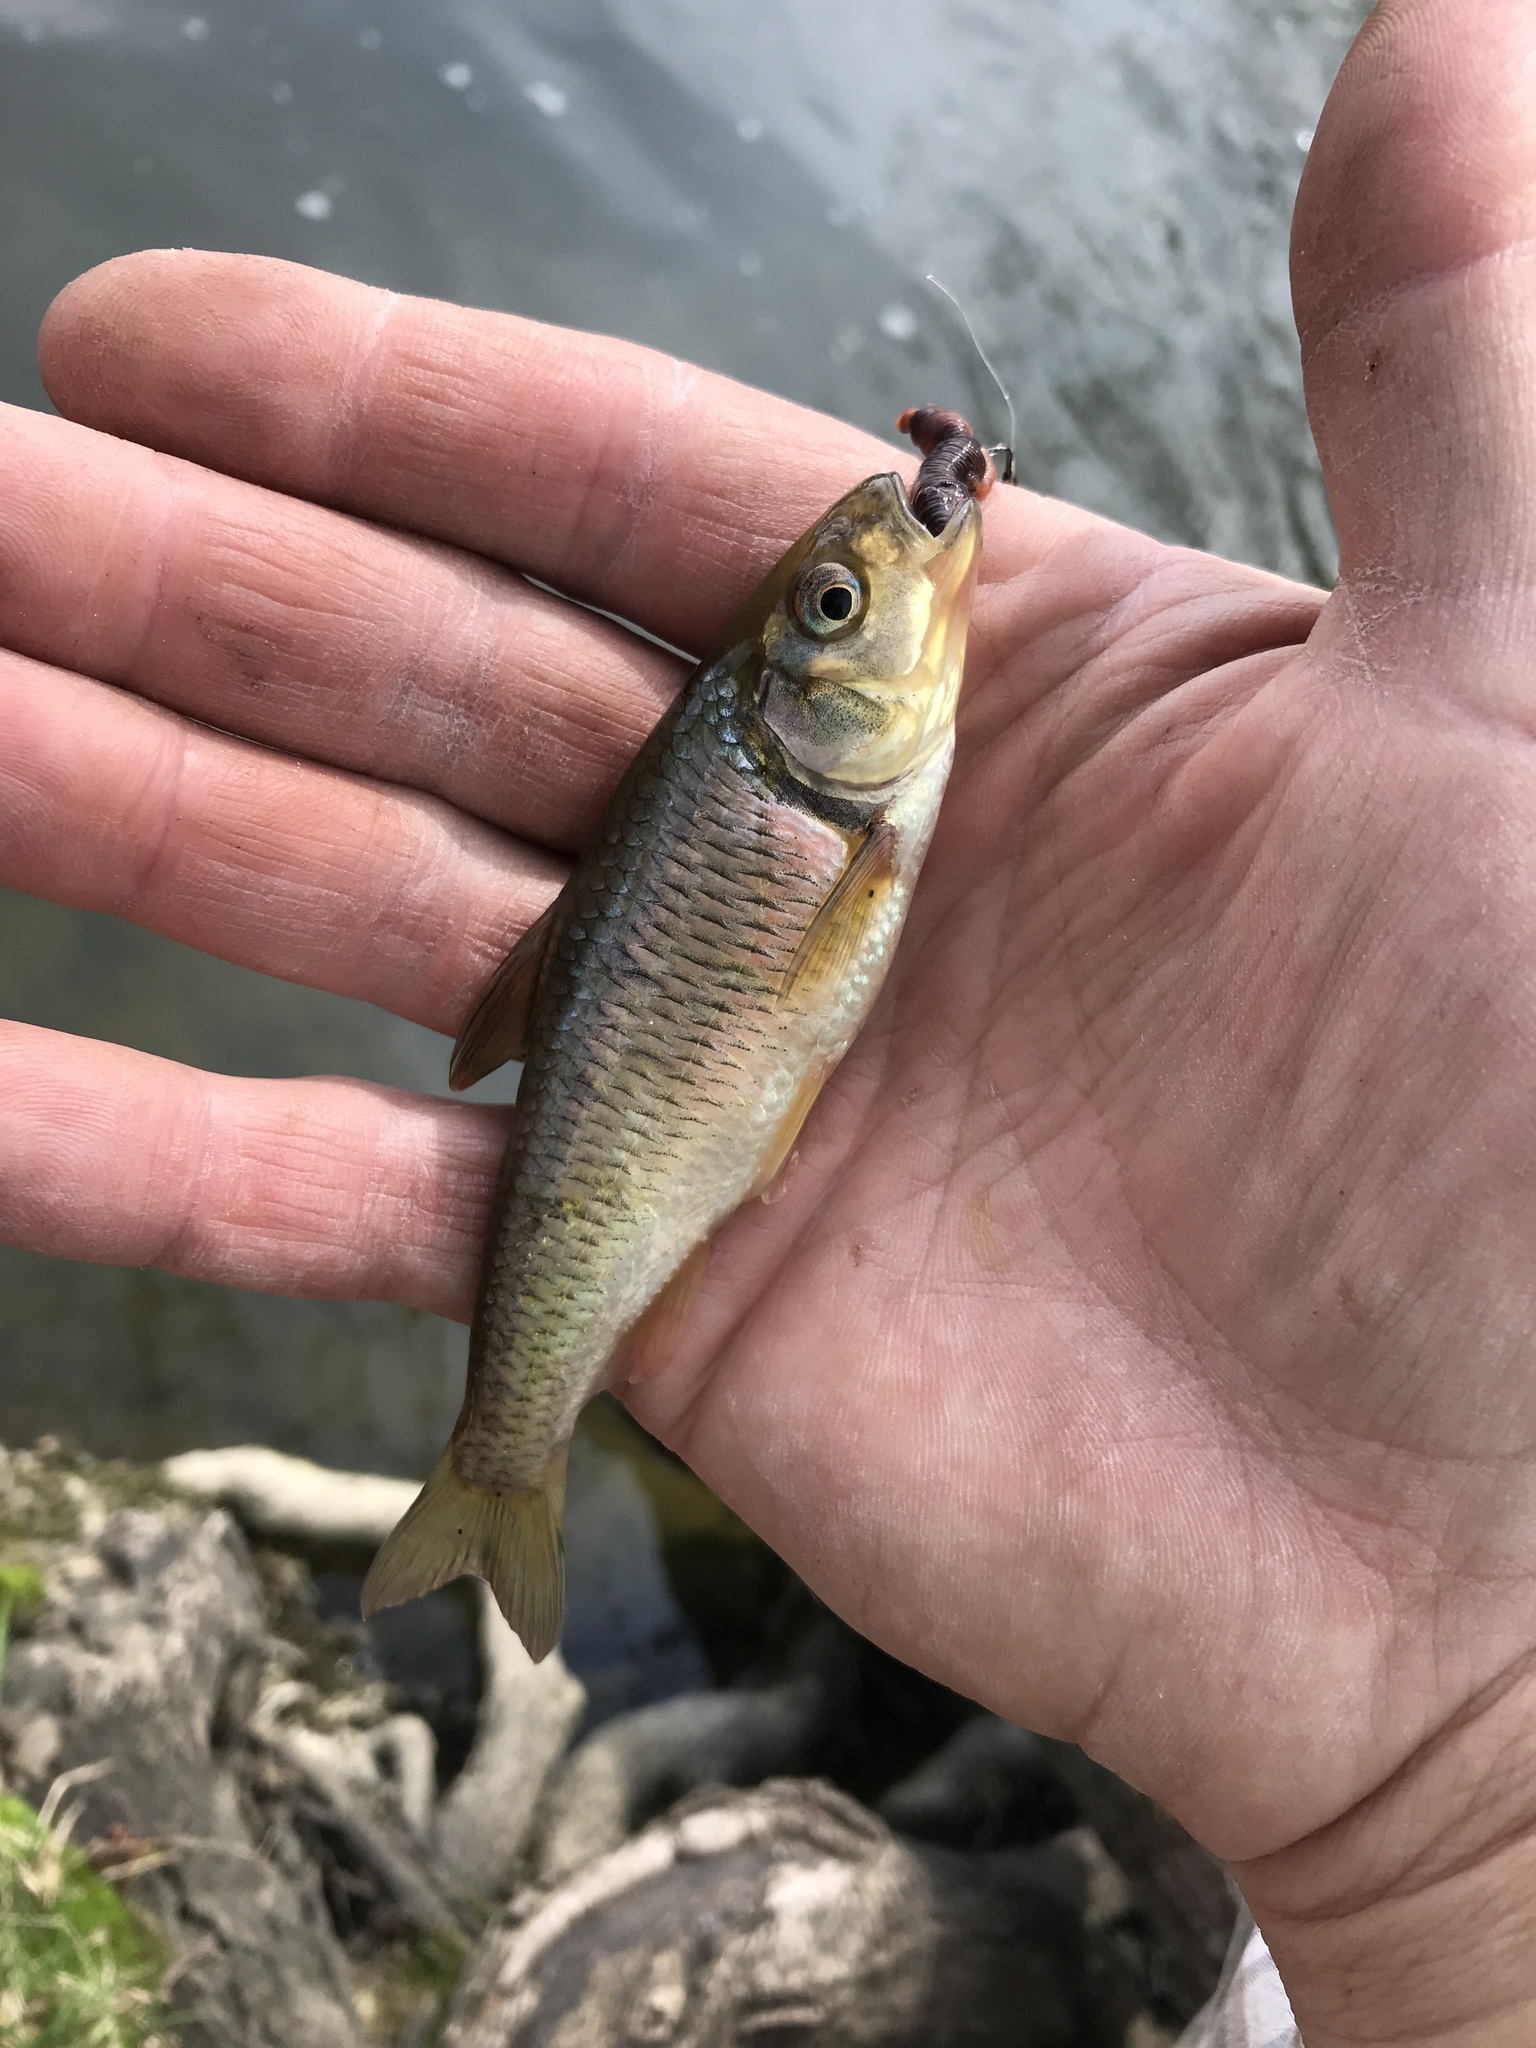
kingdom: Animalia
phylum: Chordata
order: Cypriniformes
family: Cyprinidae
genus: Luxilus
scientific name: Luxilus chrysocephalus
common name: Striped shiner
